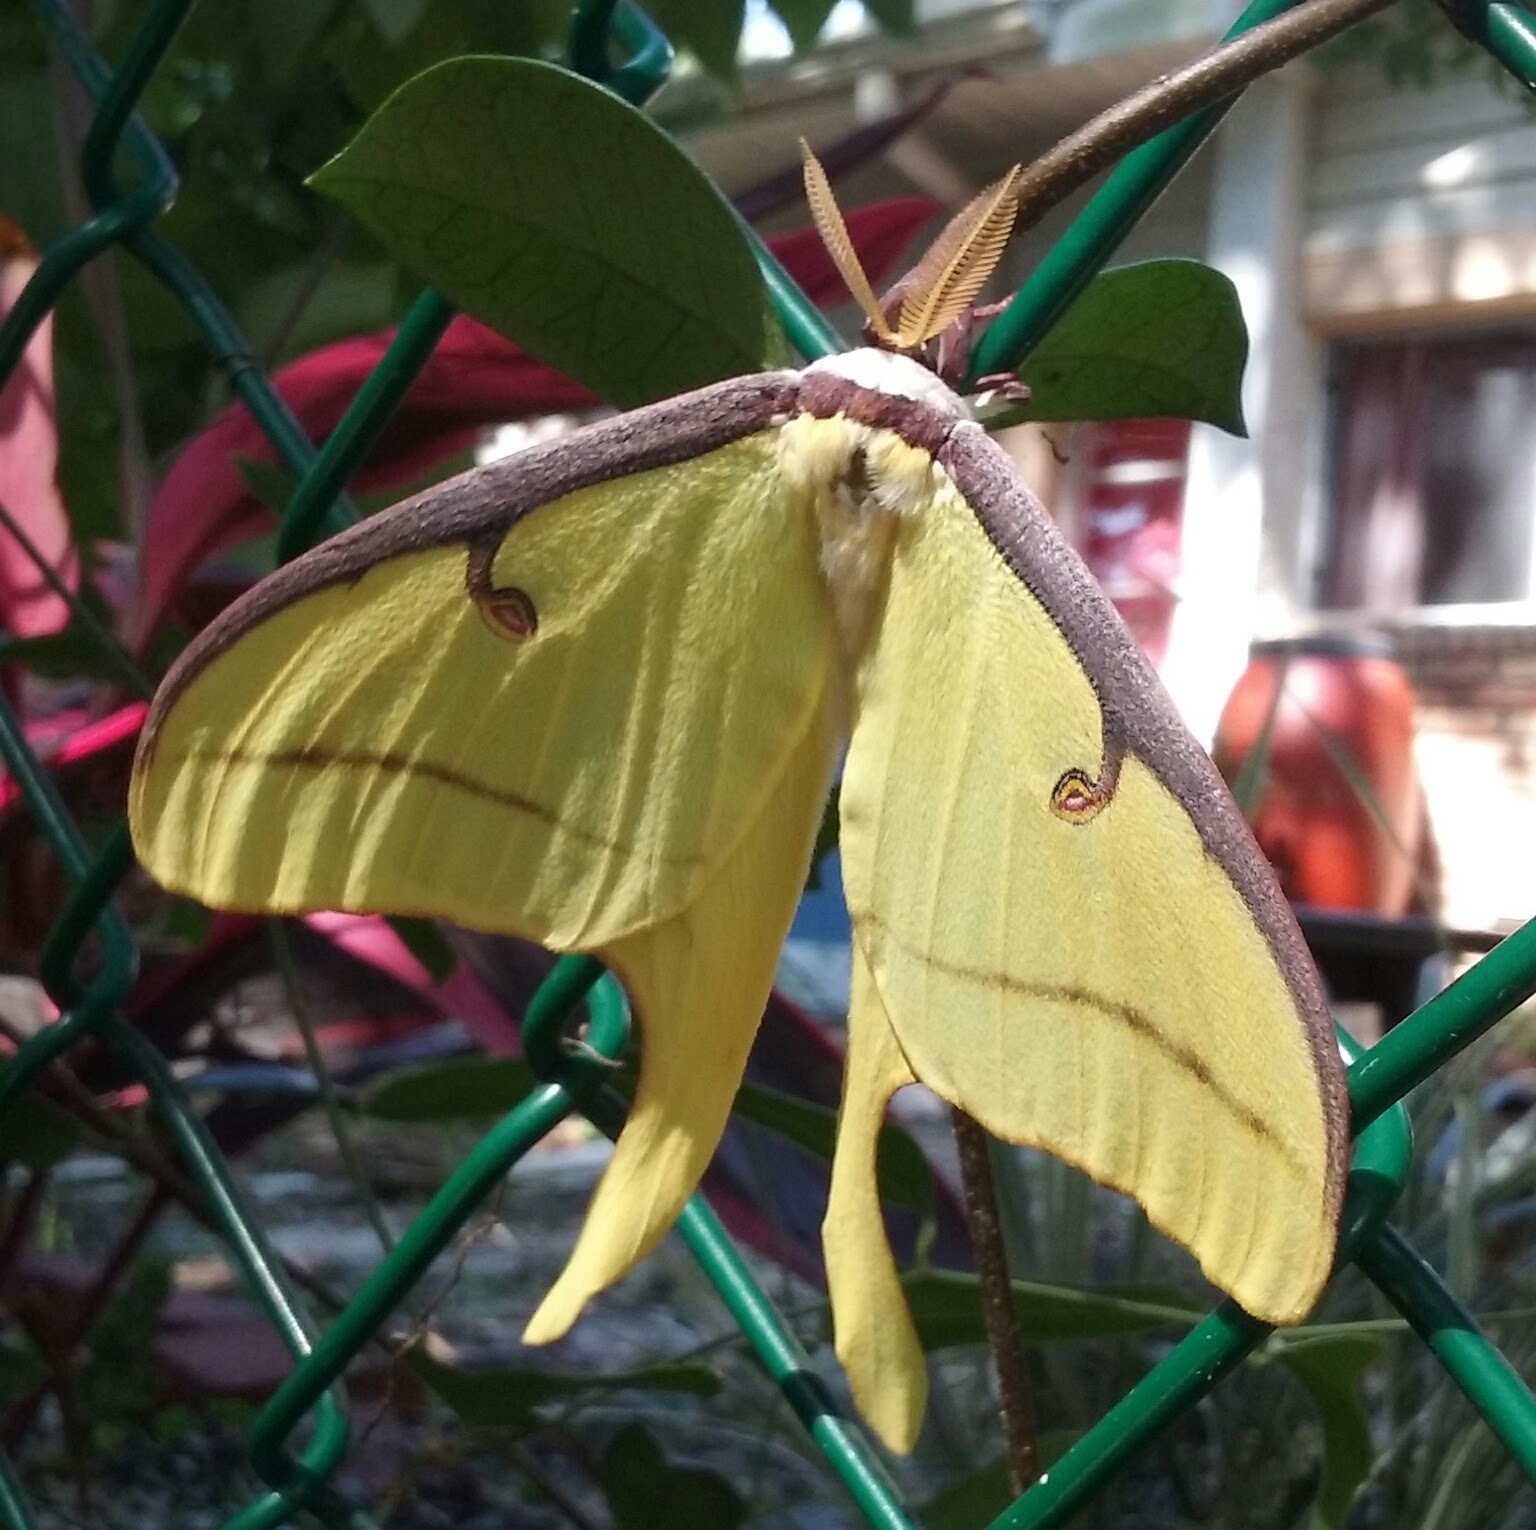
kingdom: Animalia
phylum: Arthropoda
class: Insecta
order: Lepidoptera
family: Saturniidae
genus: Actias
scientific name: Actias luna
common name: Luna moth
